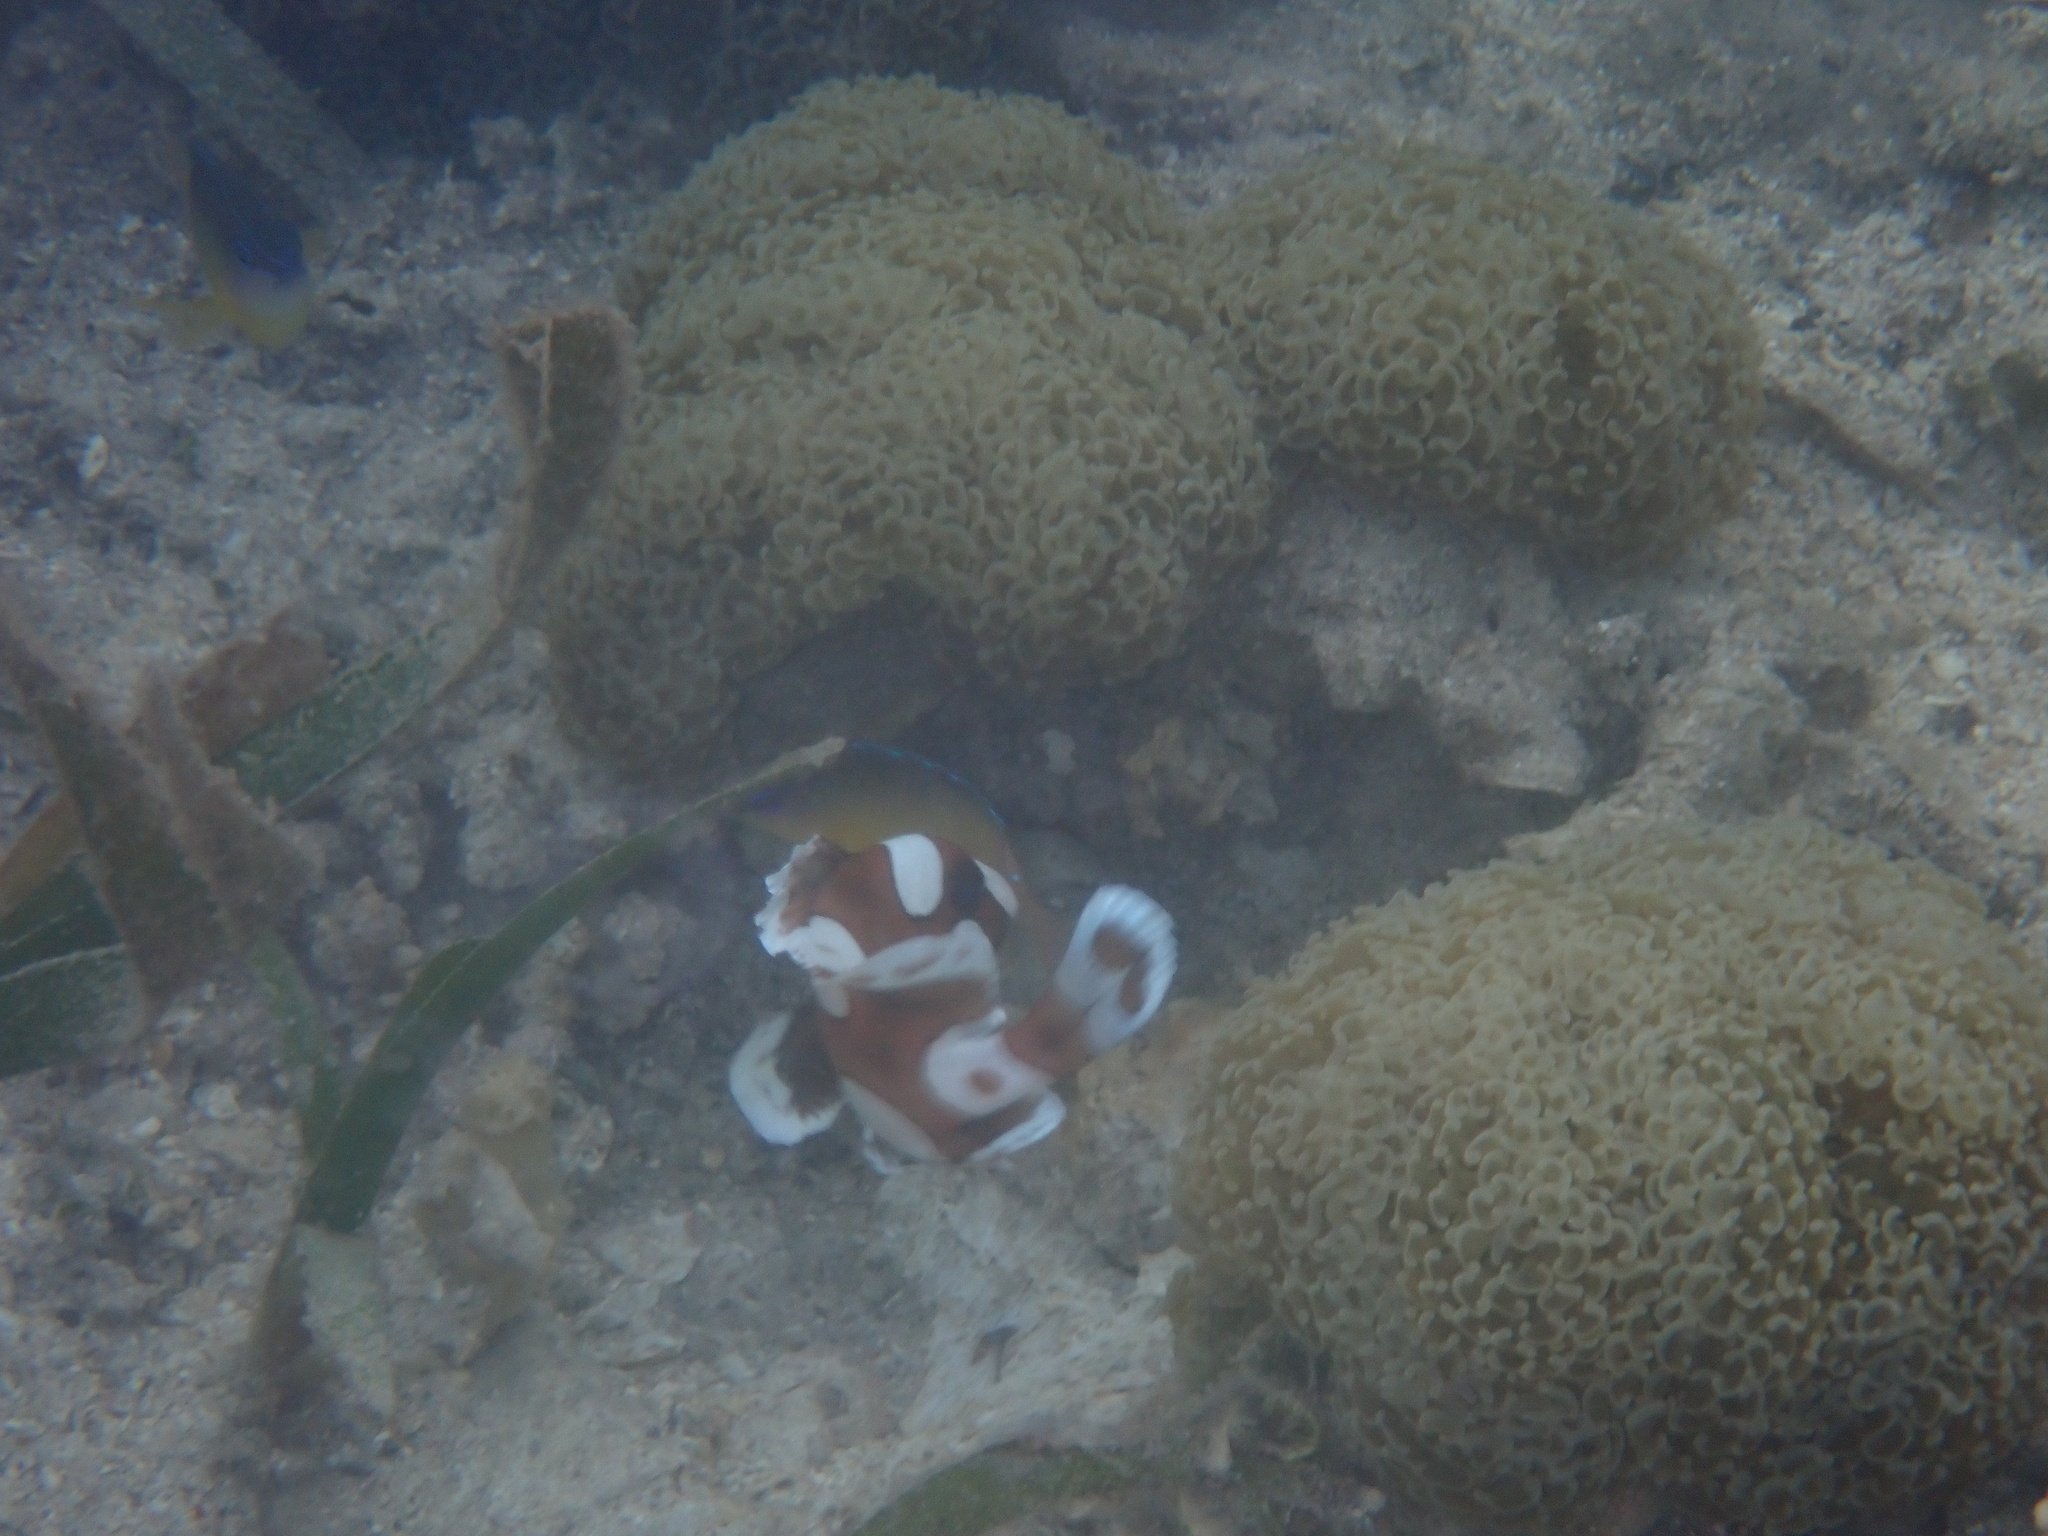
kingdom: Animalia
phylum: Chordata
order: Perciformes
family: Haemulidae
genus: Plectorhinchus
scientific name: Plectorhinchus chaetodonoides
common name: Harlequin sweetlips
